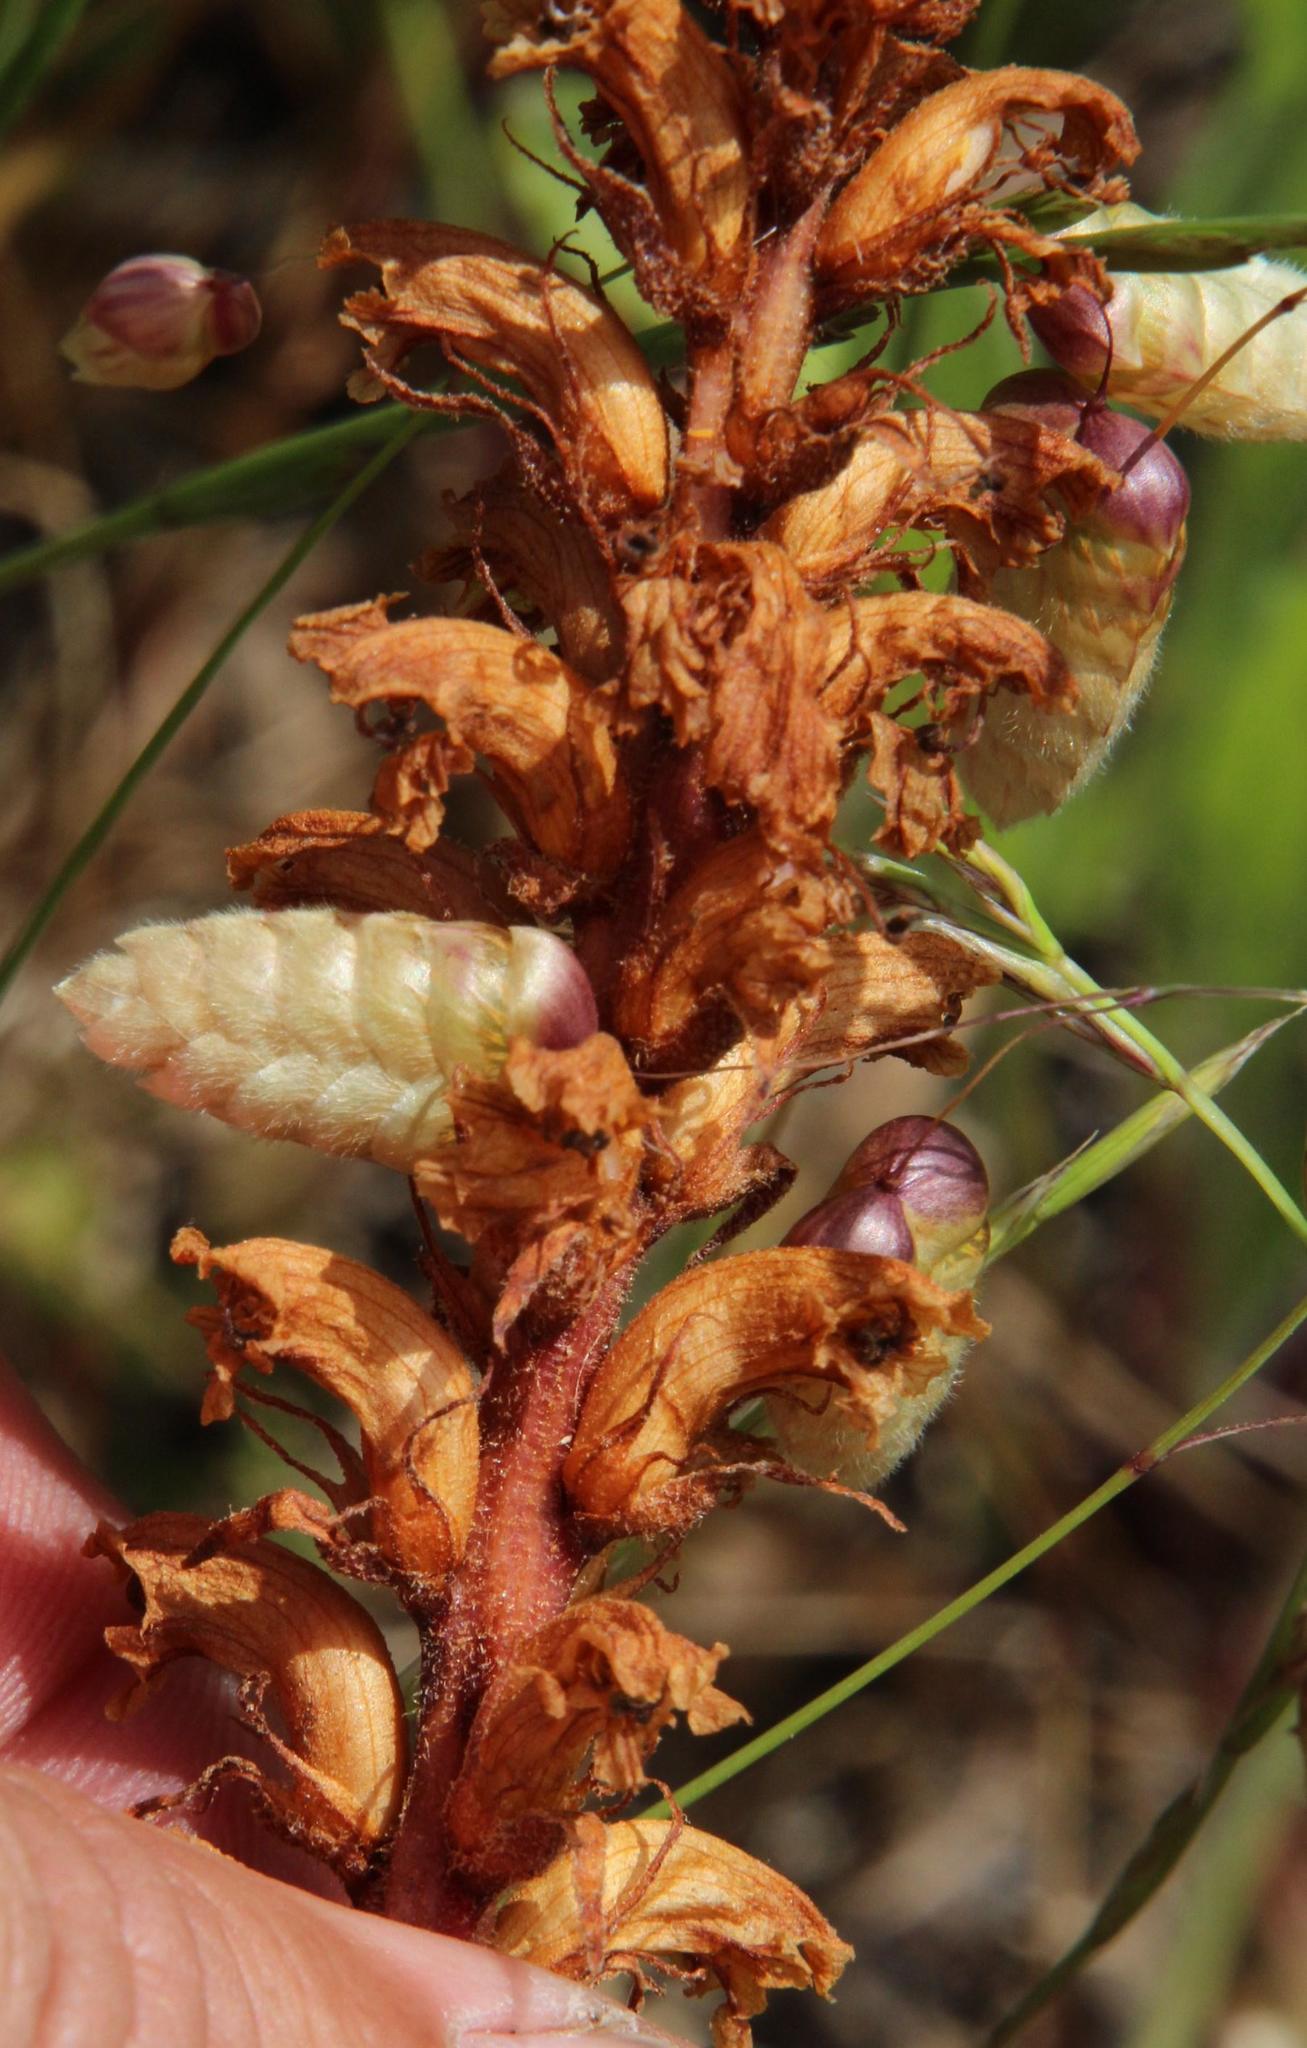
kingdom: Plantae
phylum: Tracheophyta
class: Magnoliopsida
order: Lamiales
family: Orobanchaceae
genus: Orobanche
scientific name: Orobanche minor
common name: Common broomrape
